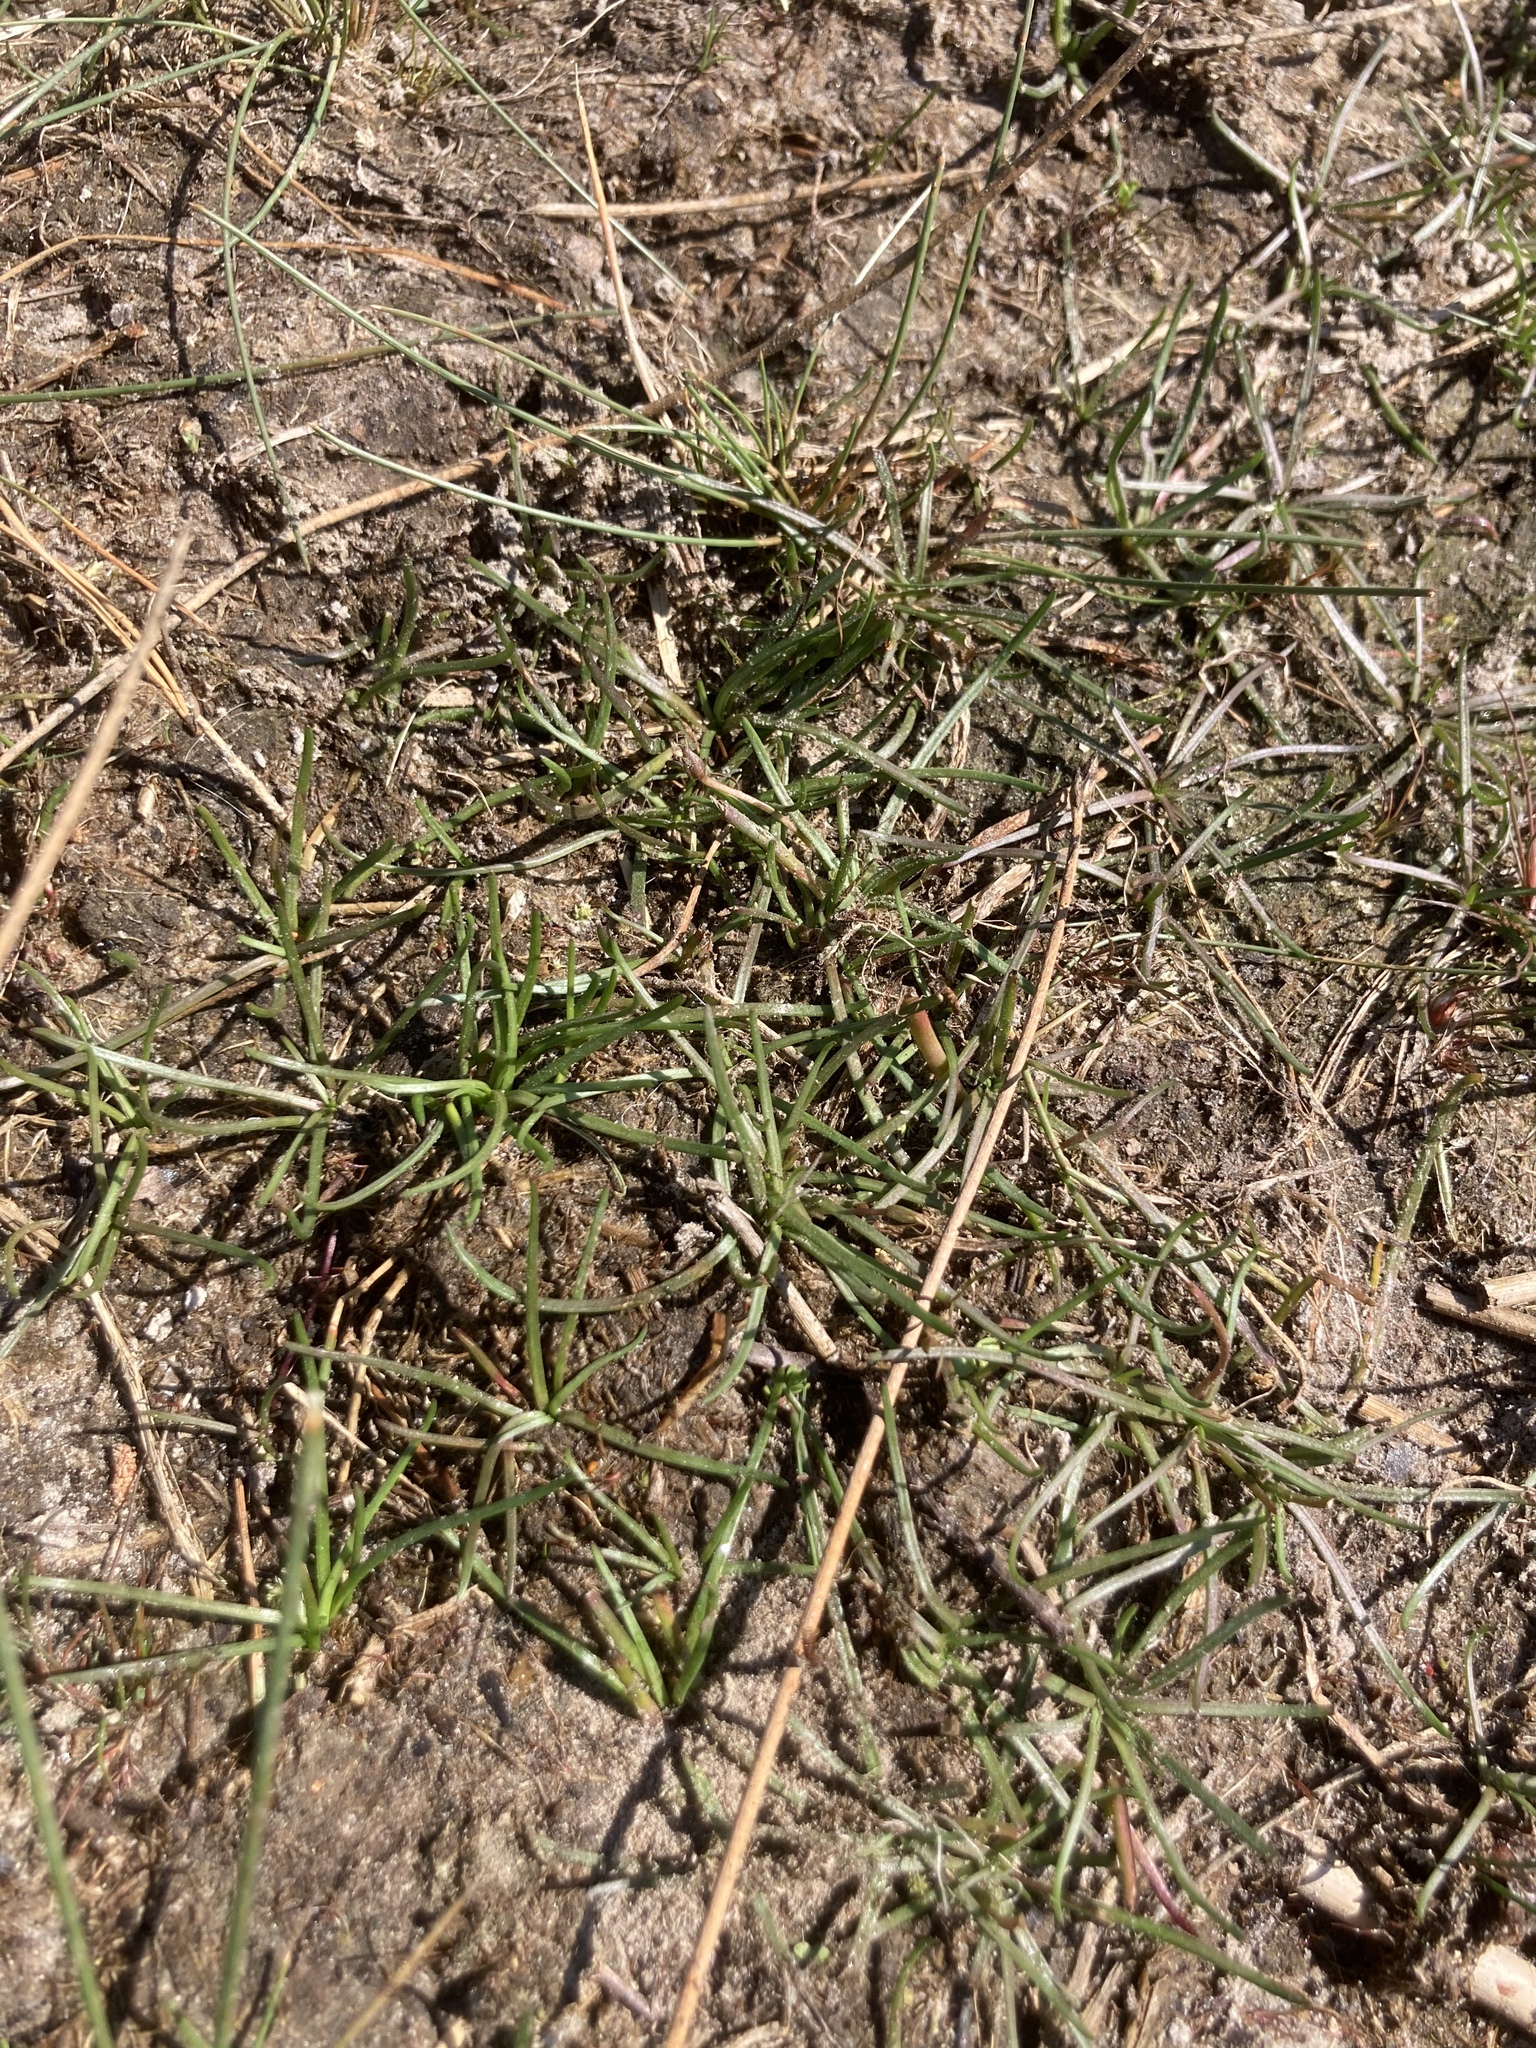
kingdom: Plantae
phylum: Tracheophyta
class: Magnoliopsida
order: Lamiales
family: Plantaginaceae
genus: Littorella
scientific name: Littorella uniflora
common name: Shoreweed
